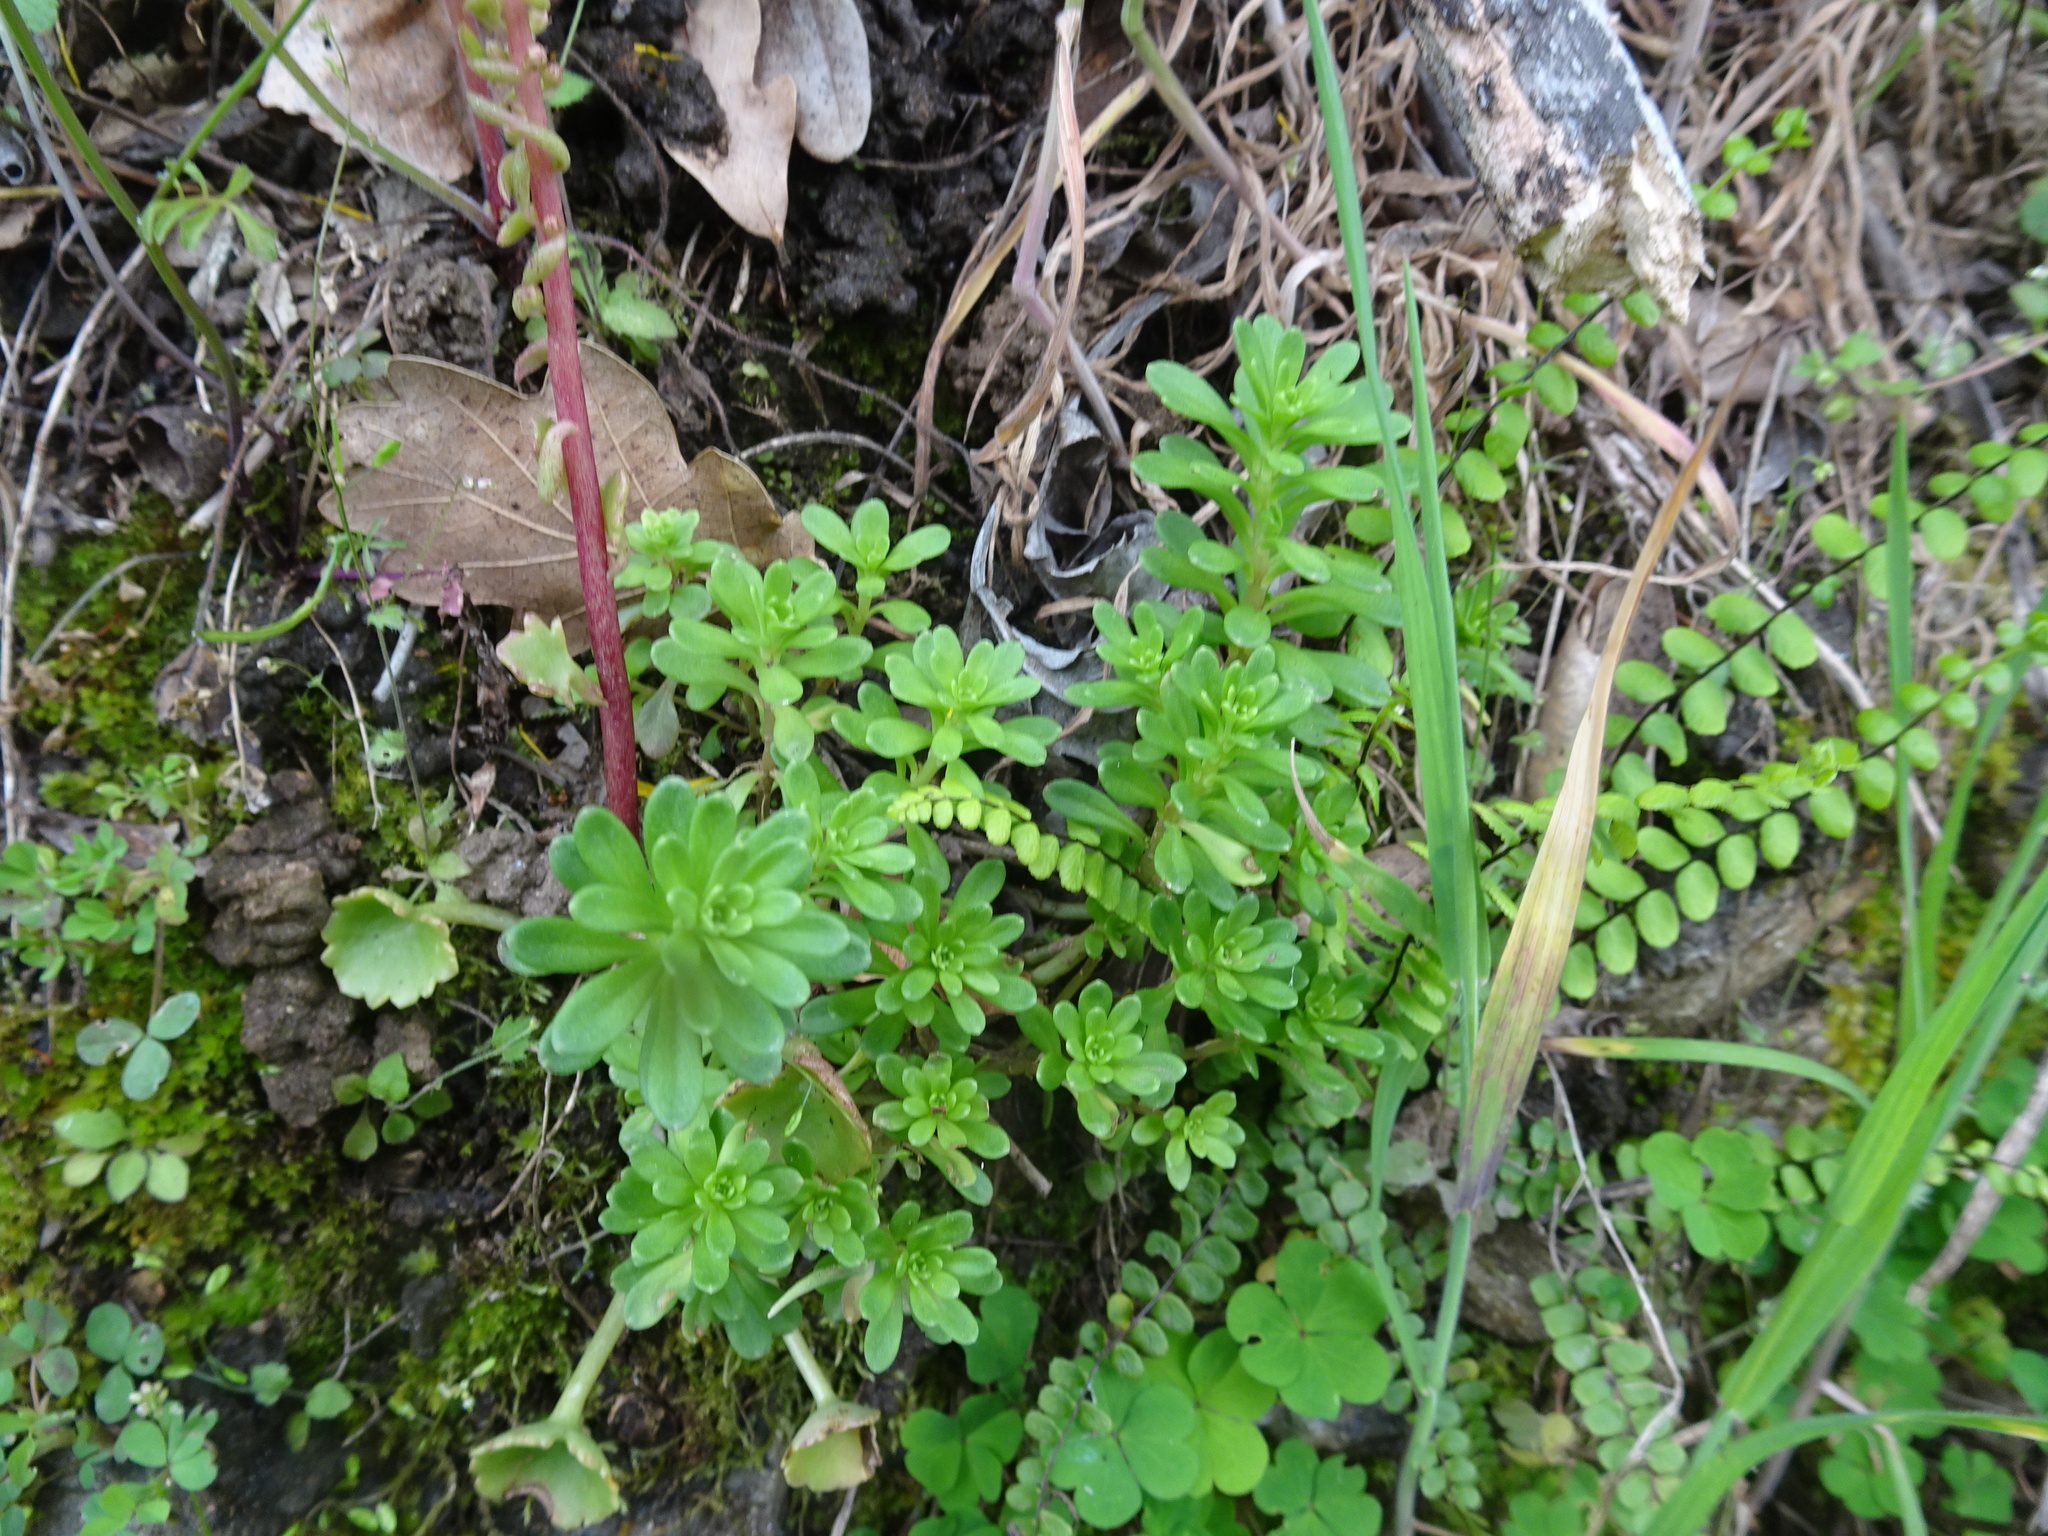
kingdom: Plantae
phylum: Tracheophyta
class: Magnoliopsida
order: Saxifragales
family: Crassulaceae
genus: Sedum
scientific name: Sedum cepaea
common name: Pink stonecrop
